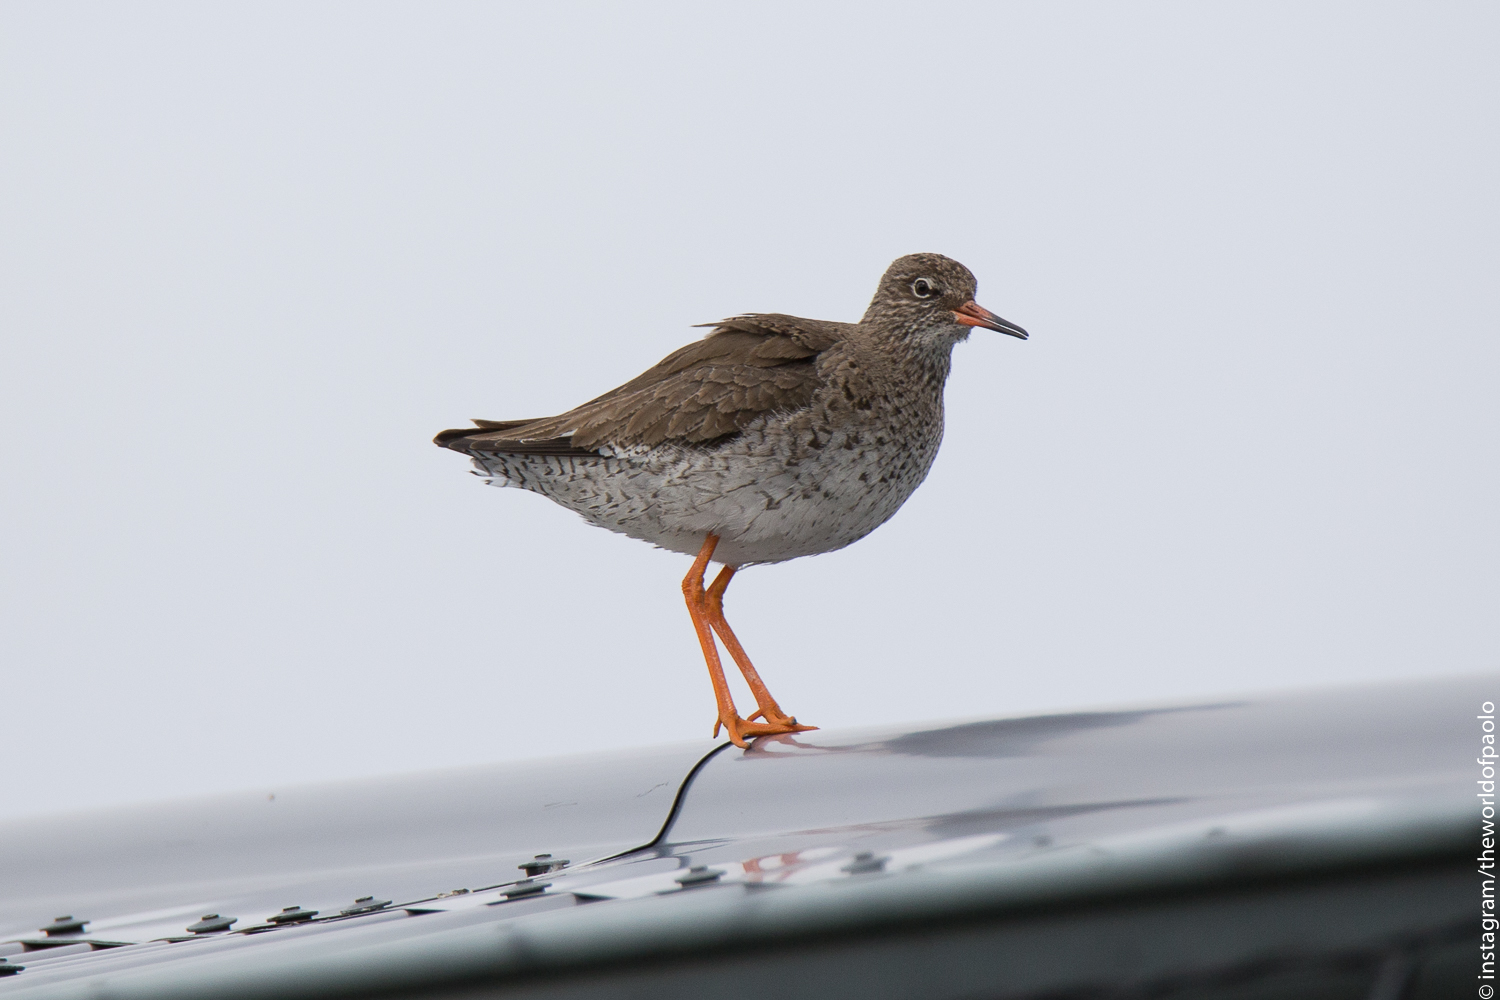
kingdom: Animalia
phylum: Chordata
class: Aves
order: Charadriiformes
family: Scolopacidae
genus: Tringa
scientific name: Tringa totanus
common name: Common redshank
